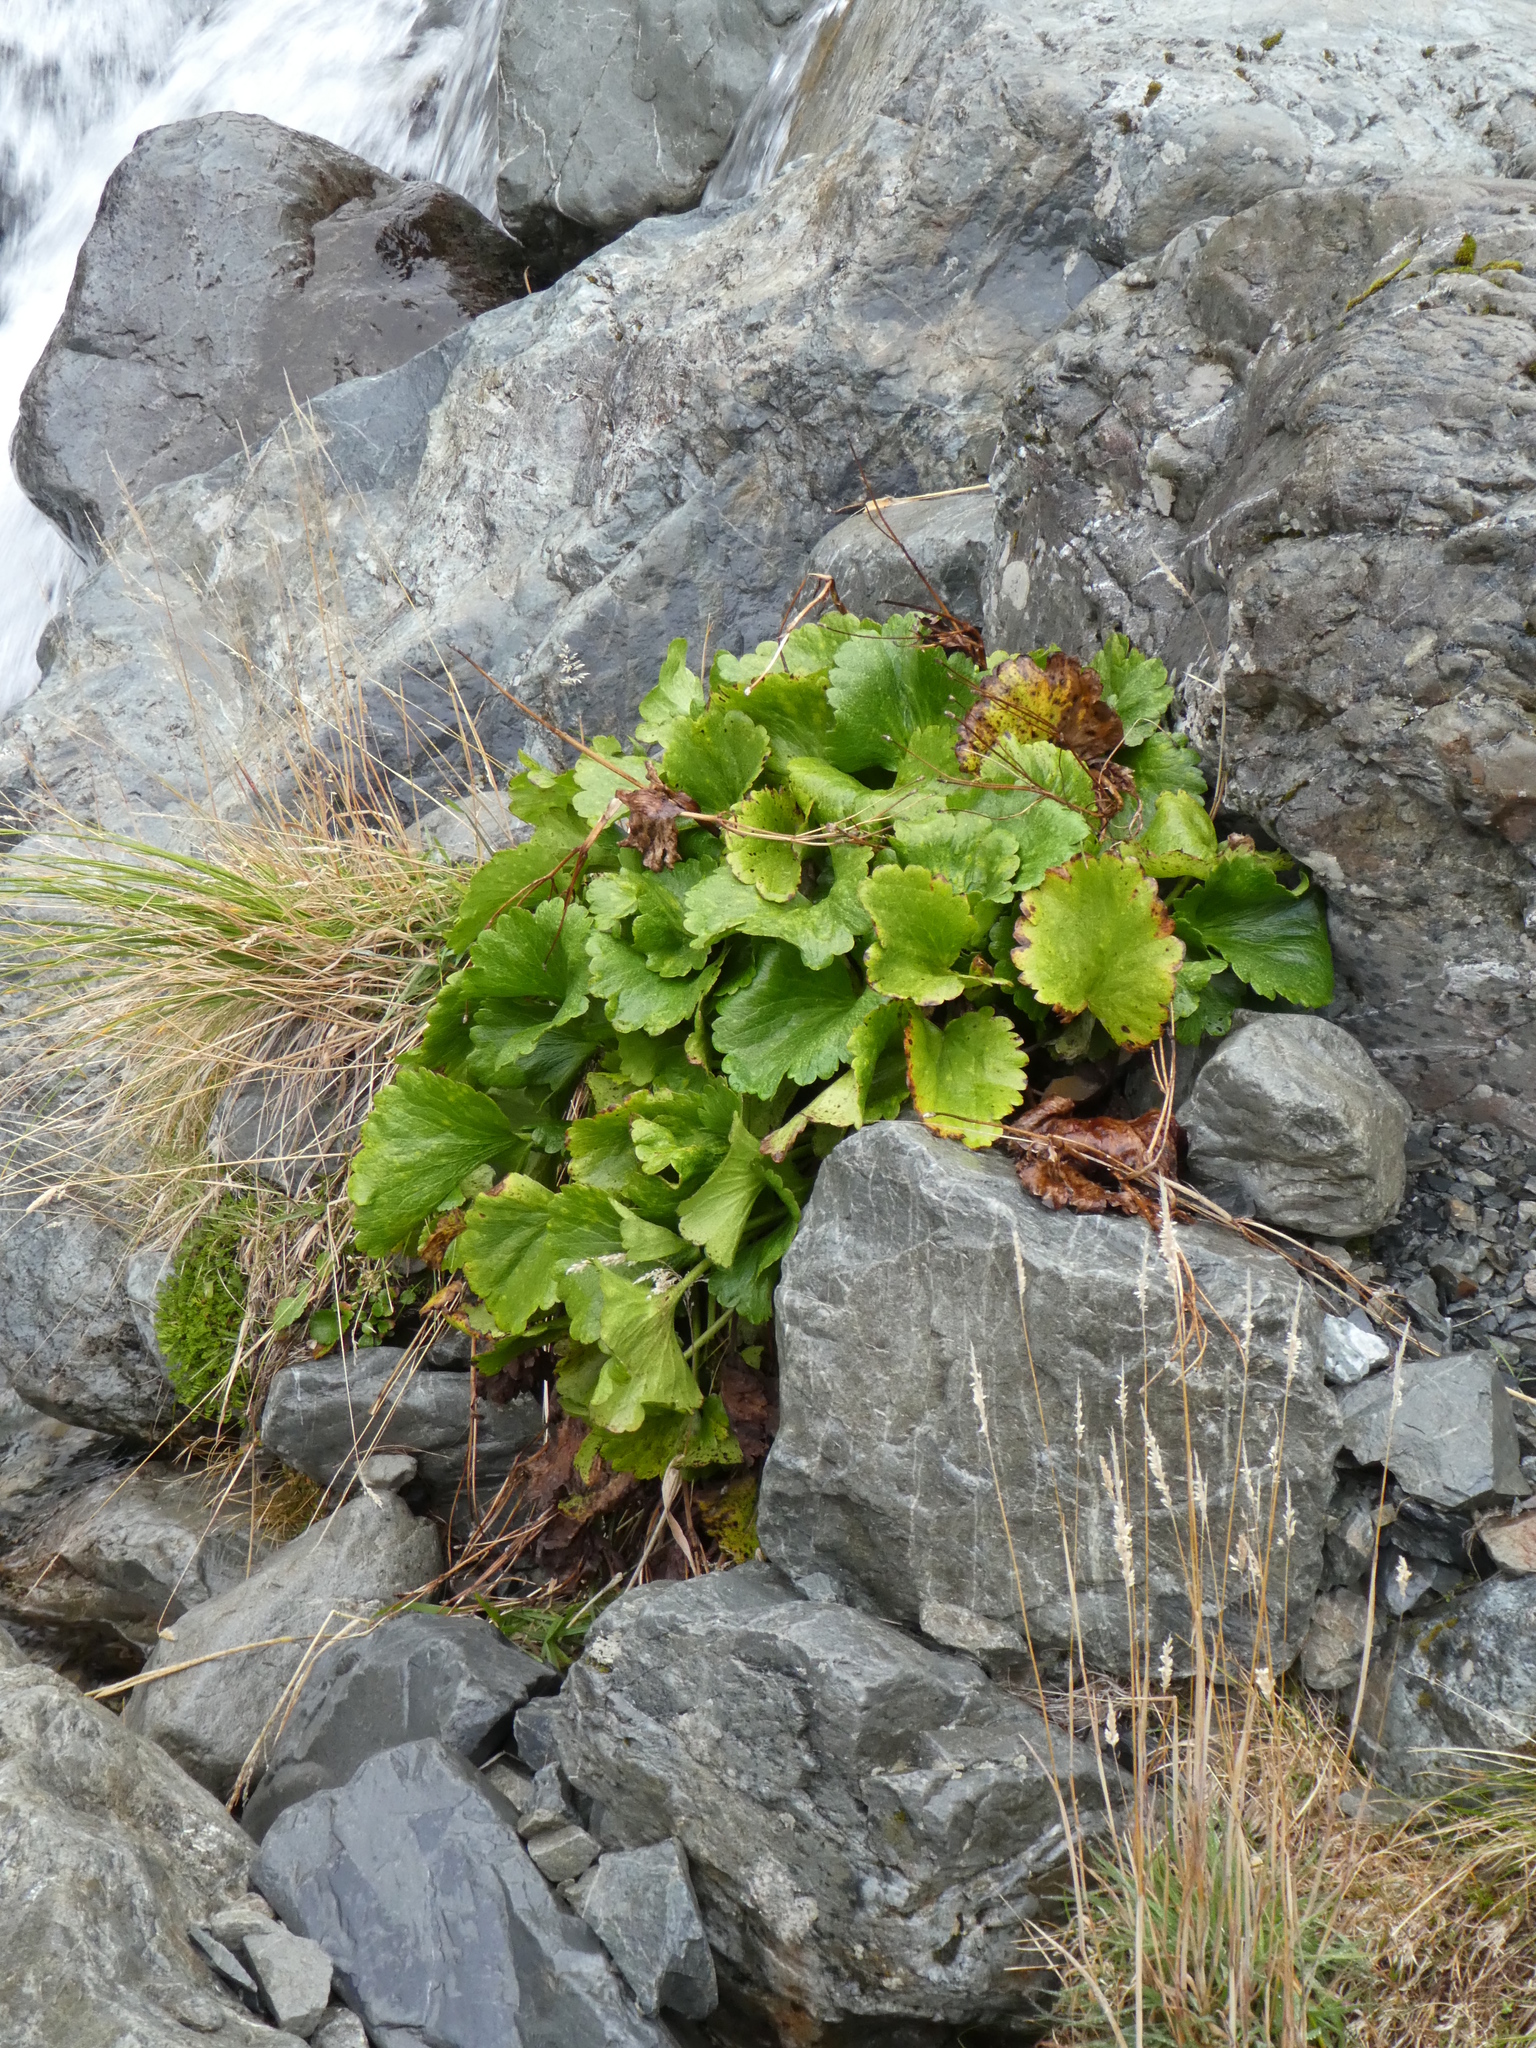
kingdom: Plantae
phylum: Tracheophyta
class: Magnoliopsida
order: Ranunculales
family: Ranunculaceae
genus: Ranunculus
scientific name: Ranunculus insignis
